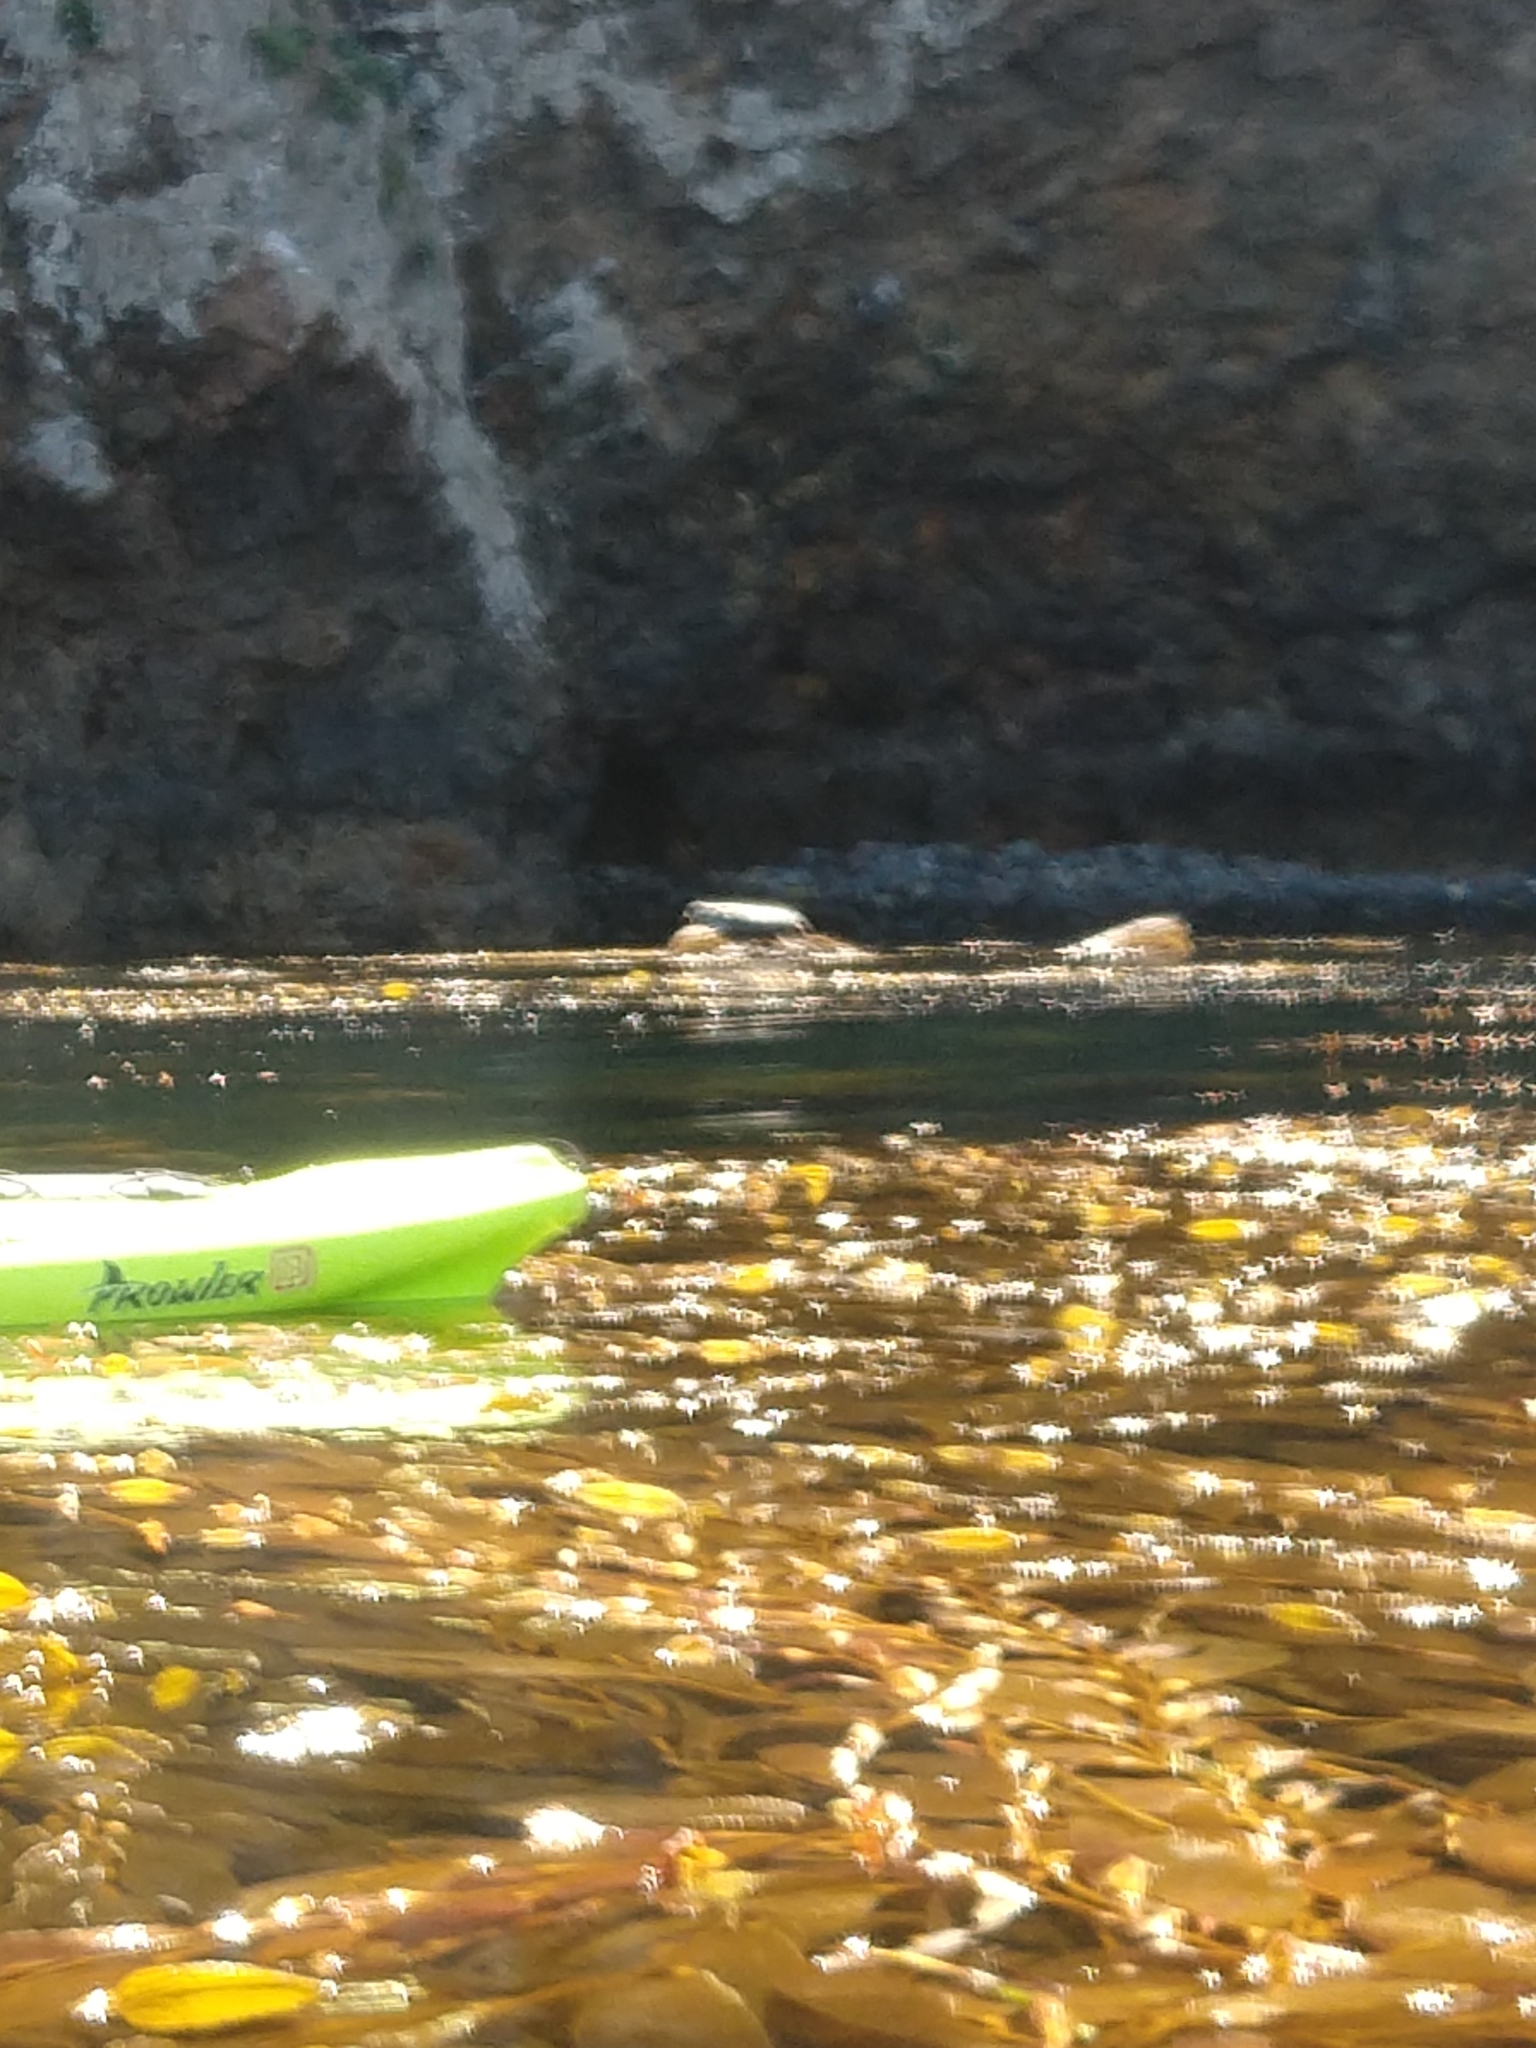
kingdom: Chromista
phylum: Ochrophyta
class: Phaeophyceae
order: Laminariales
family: Laminariaceae
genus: Macrocystis
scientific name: Macrocystis pyrifera
